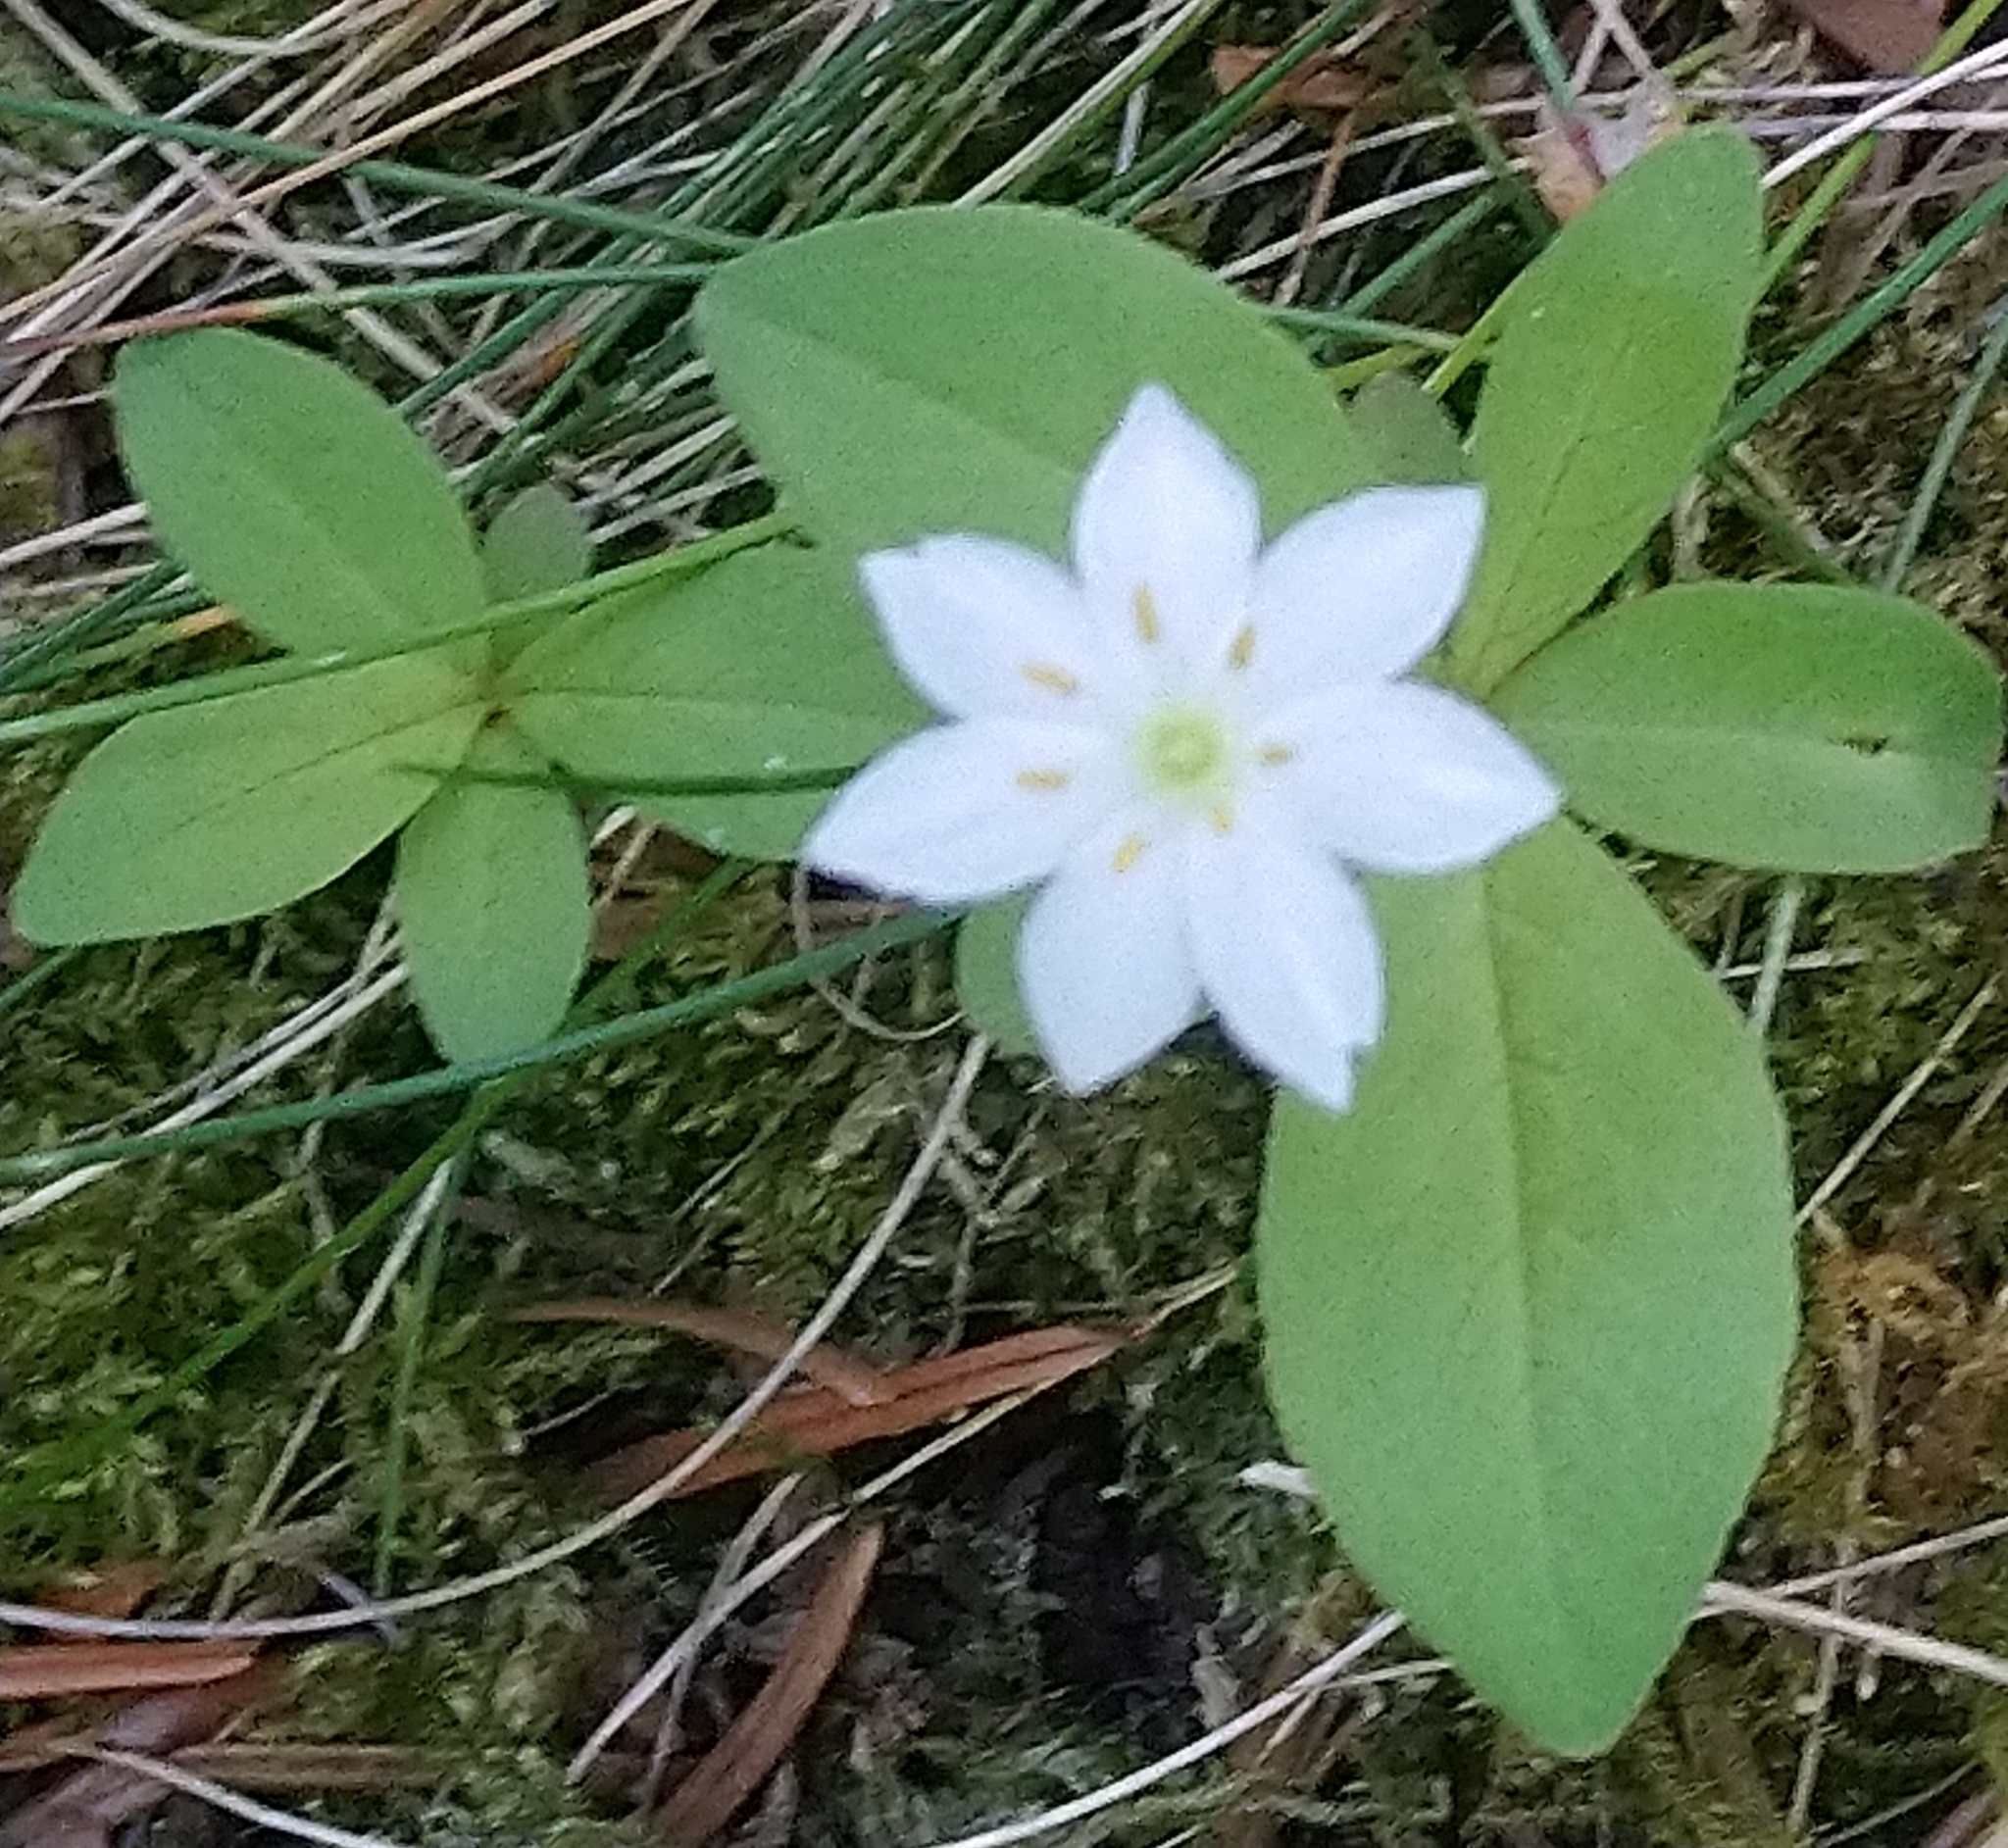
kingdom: Plantae
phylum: Tracheophyta
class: Magnoliopsida
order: Ericales
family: Primulaceae
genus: Lysimachia
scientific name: Lysimachia europaea
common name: Arctic starflower
